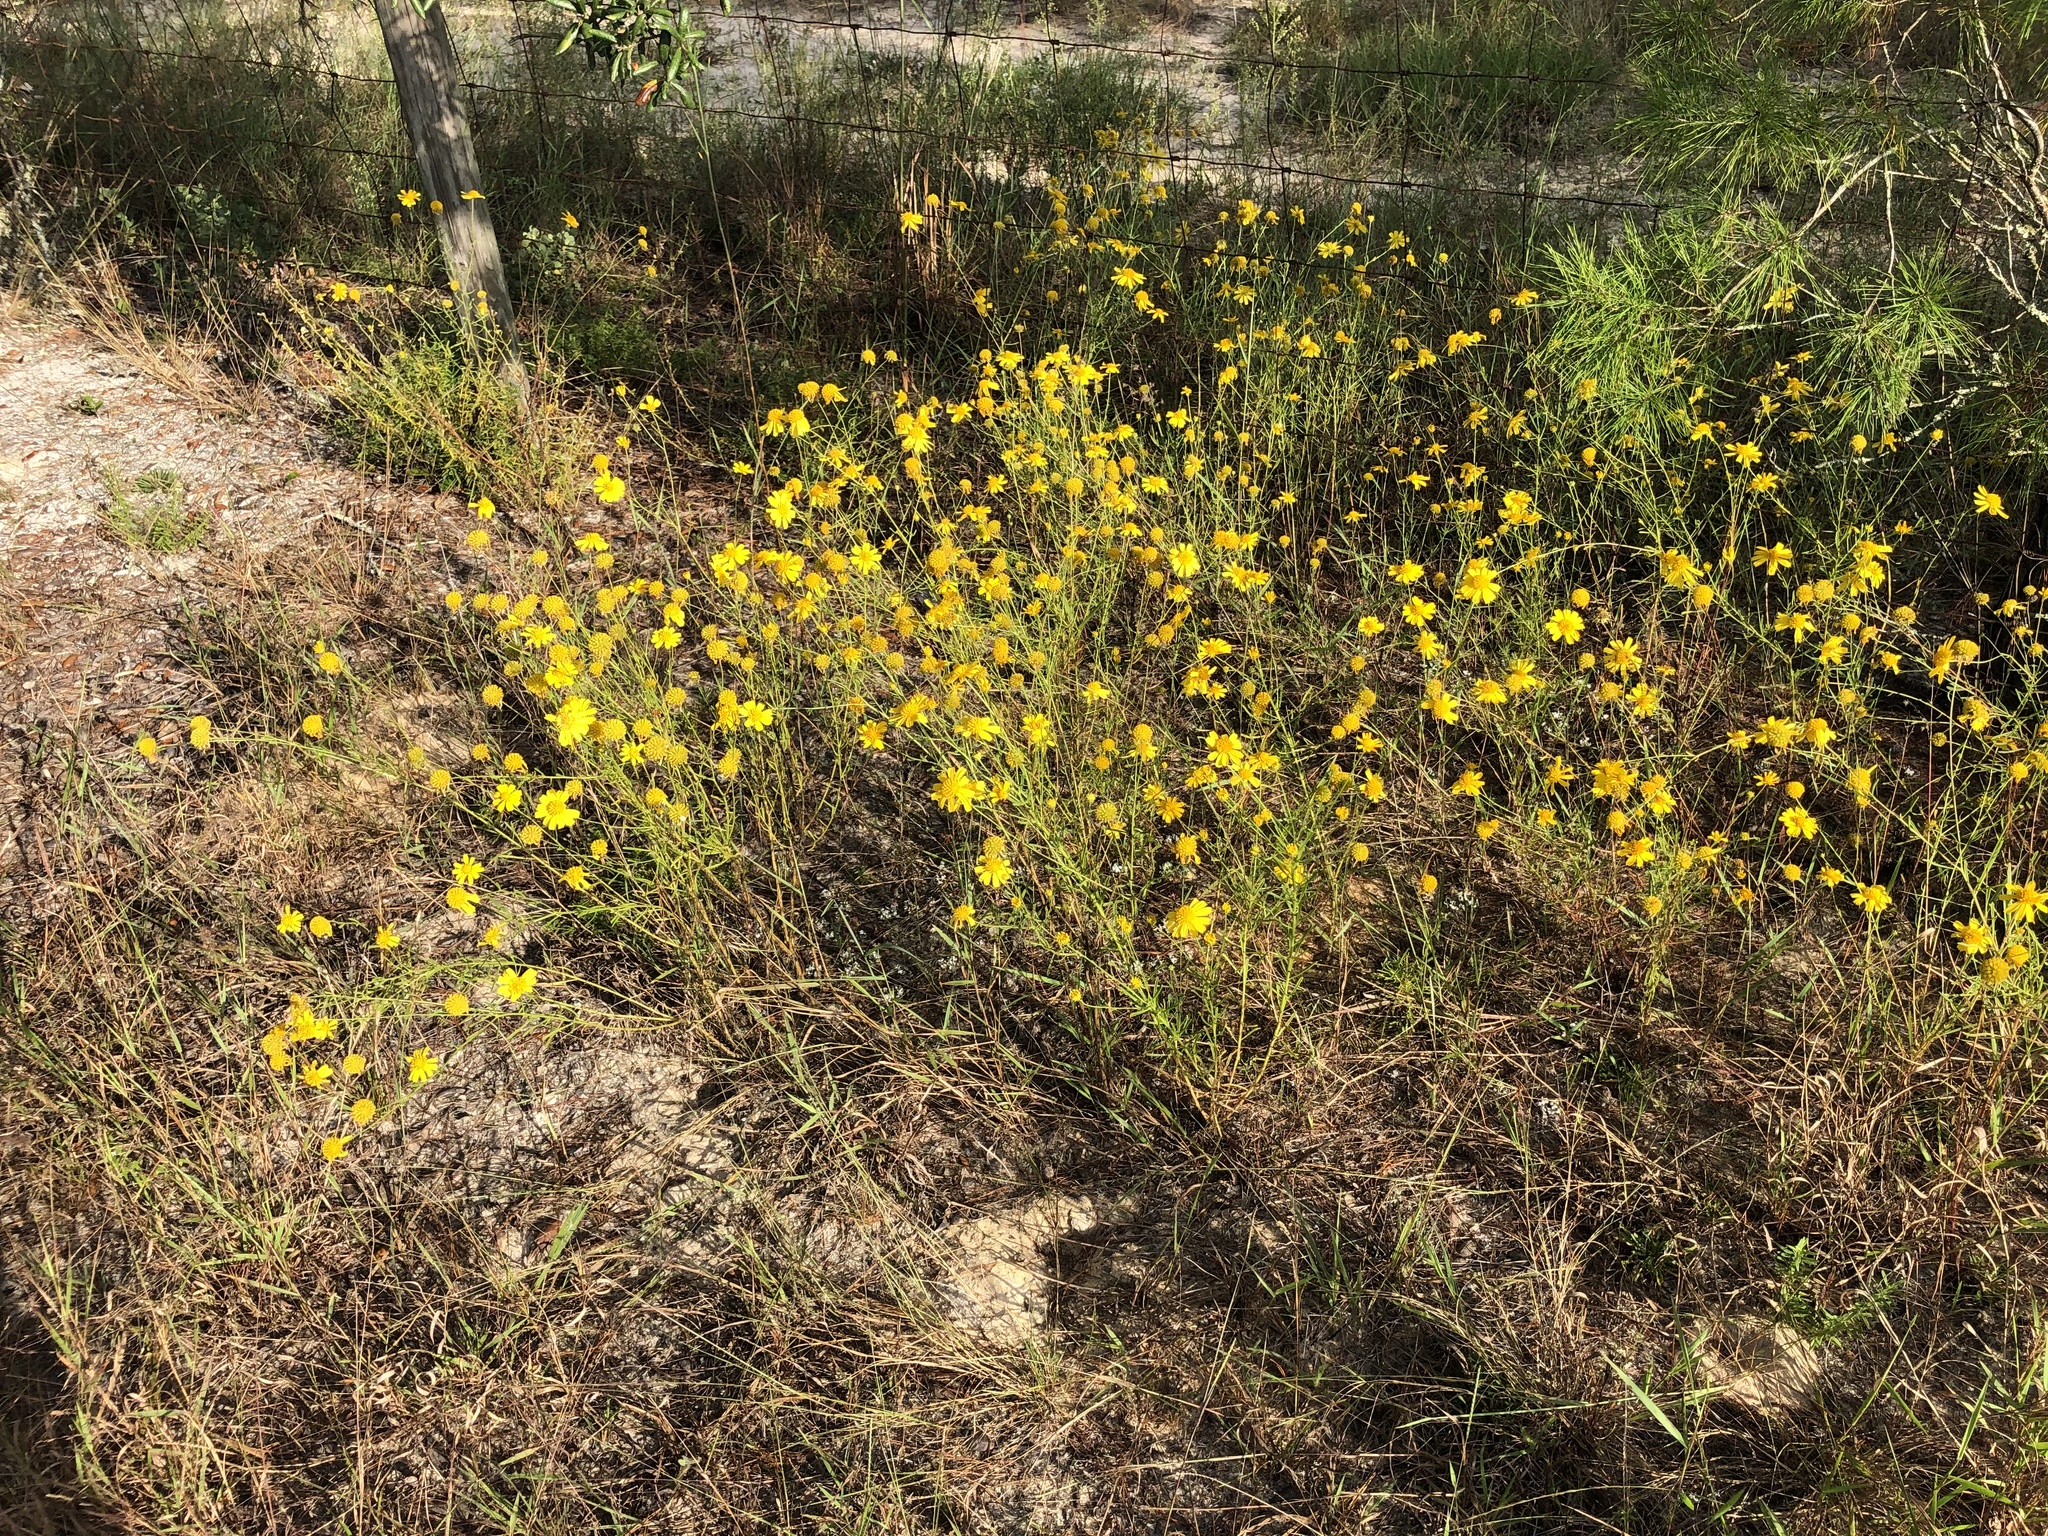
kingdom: Plantae
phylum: Tracheophyta
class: Magnoliopsida
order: Asterales
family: Asteraceae
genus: Balduina
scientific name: Balduina angustifolia
